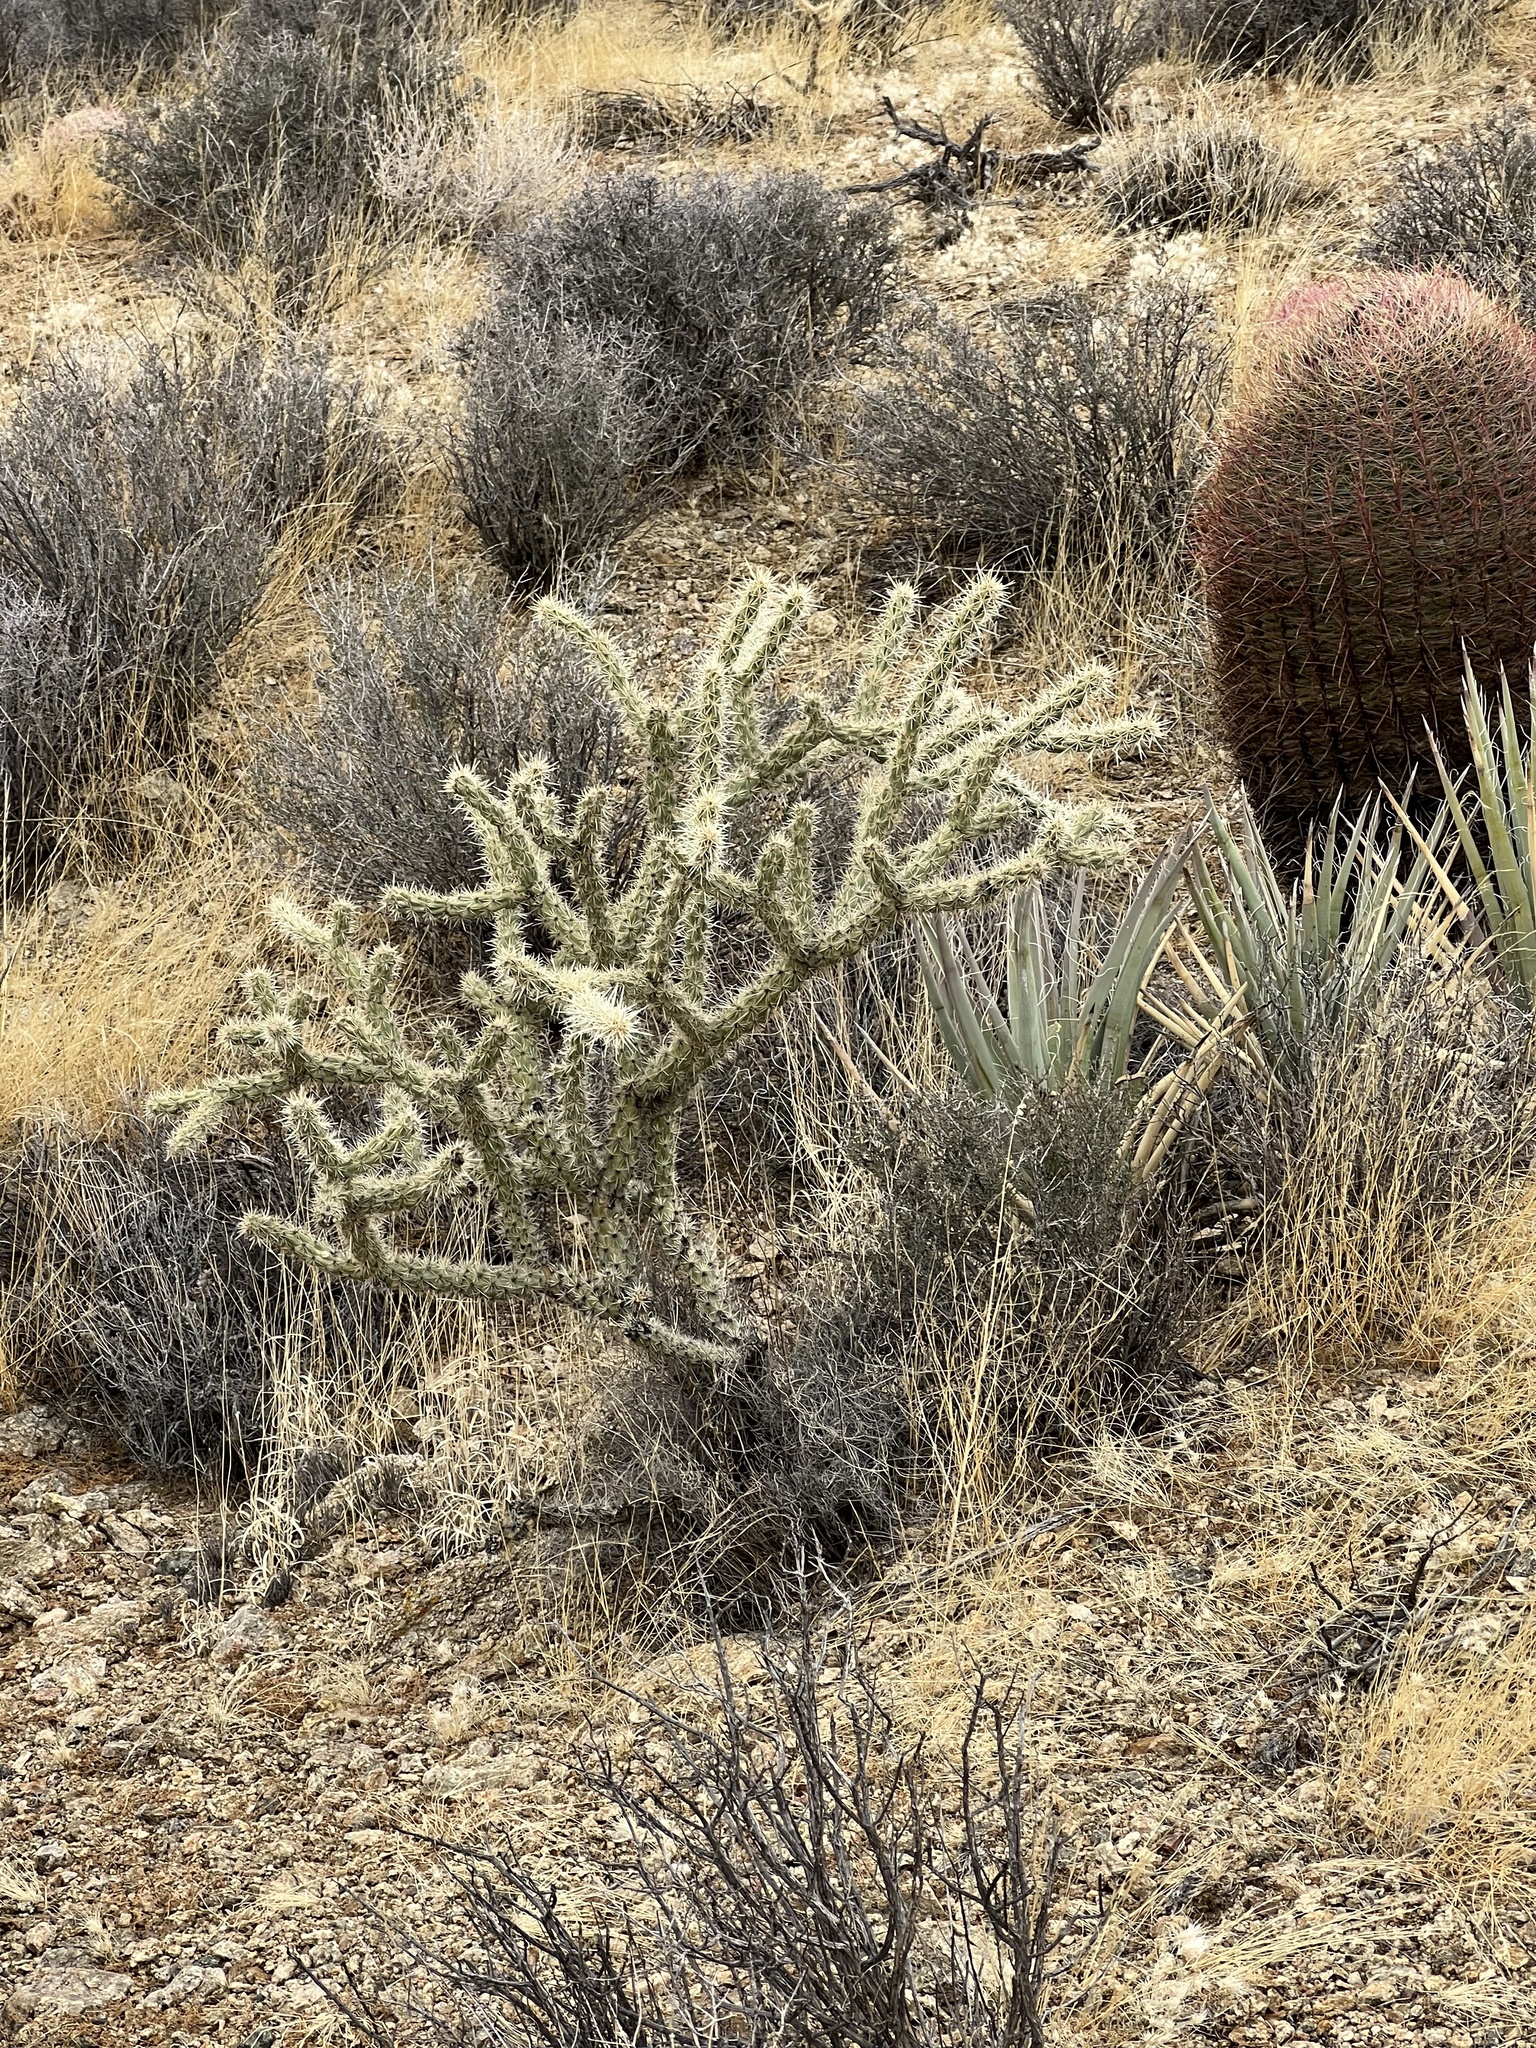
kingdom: Plantae
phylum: Tracheophyta
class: Magnoliopsida
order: Caryophyllales
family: Cactaceae
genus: Cylindropuntia
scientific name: Cylindropuntia acanthocarpa
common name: Buckhorn cholla
